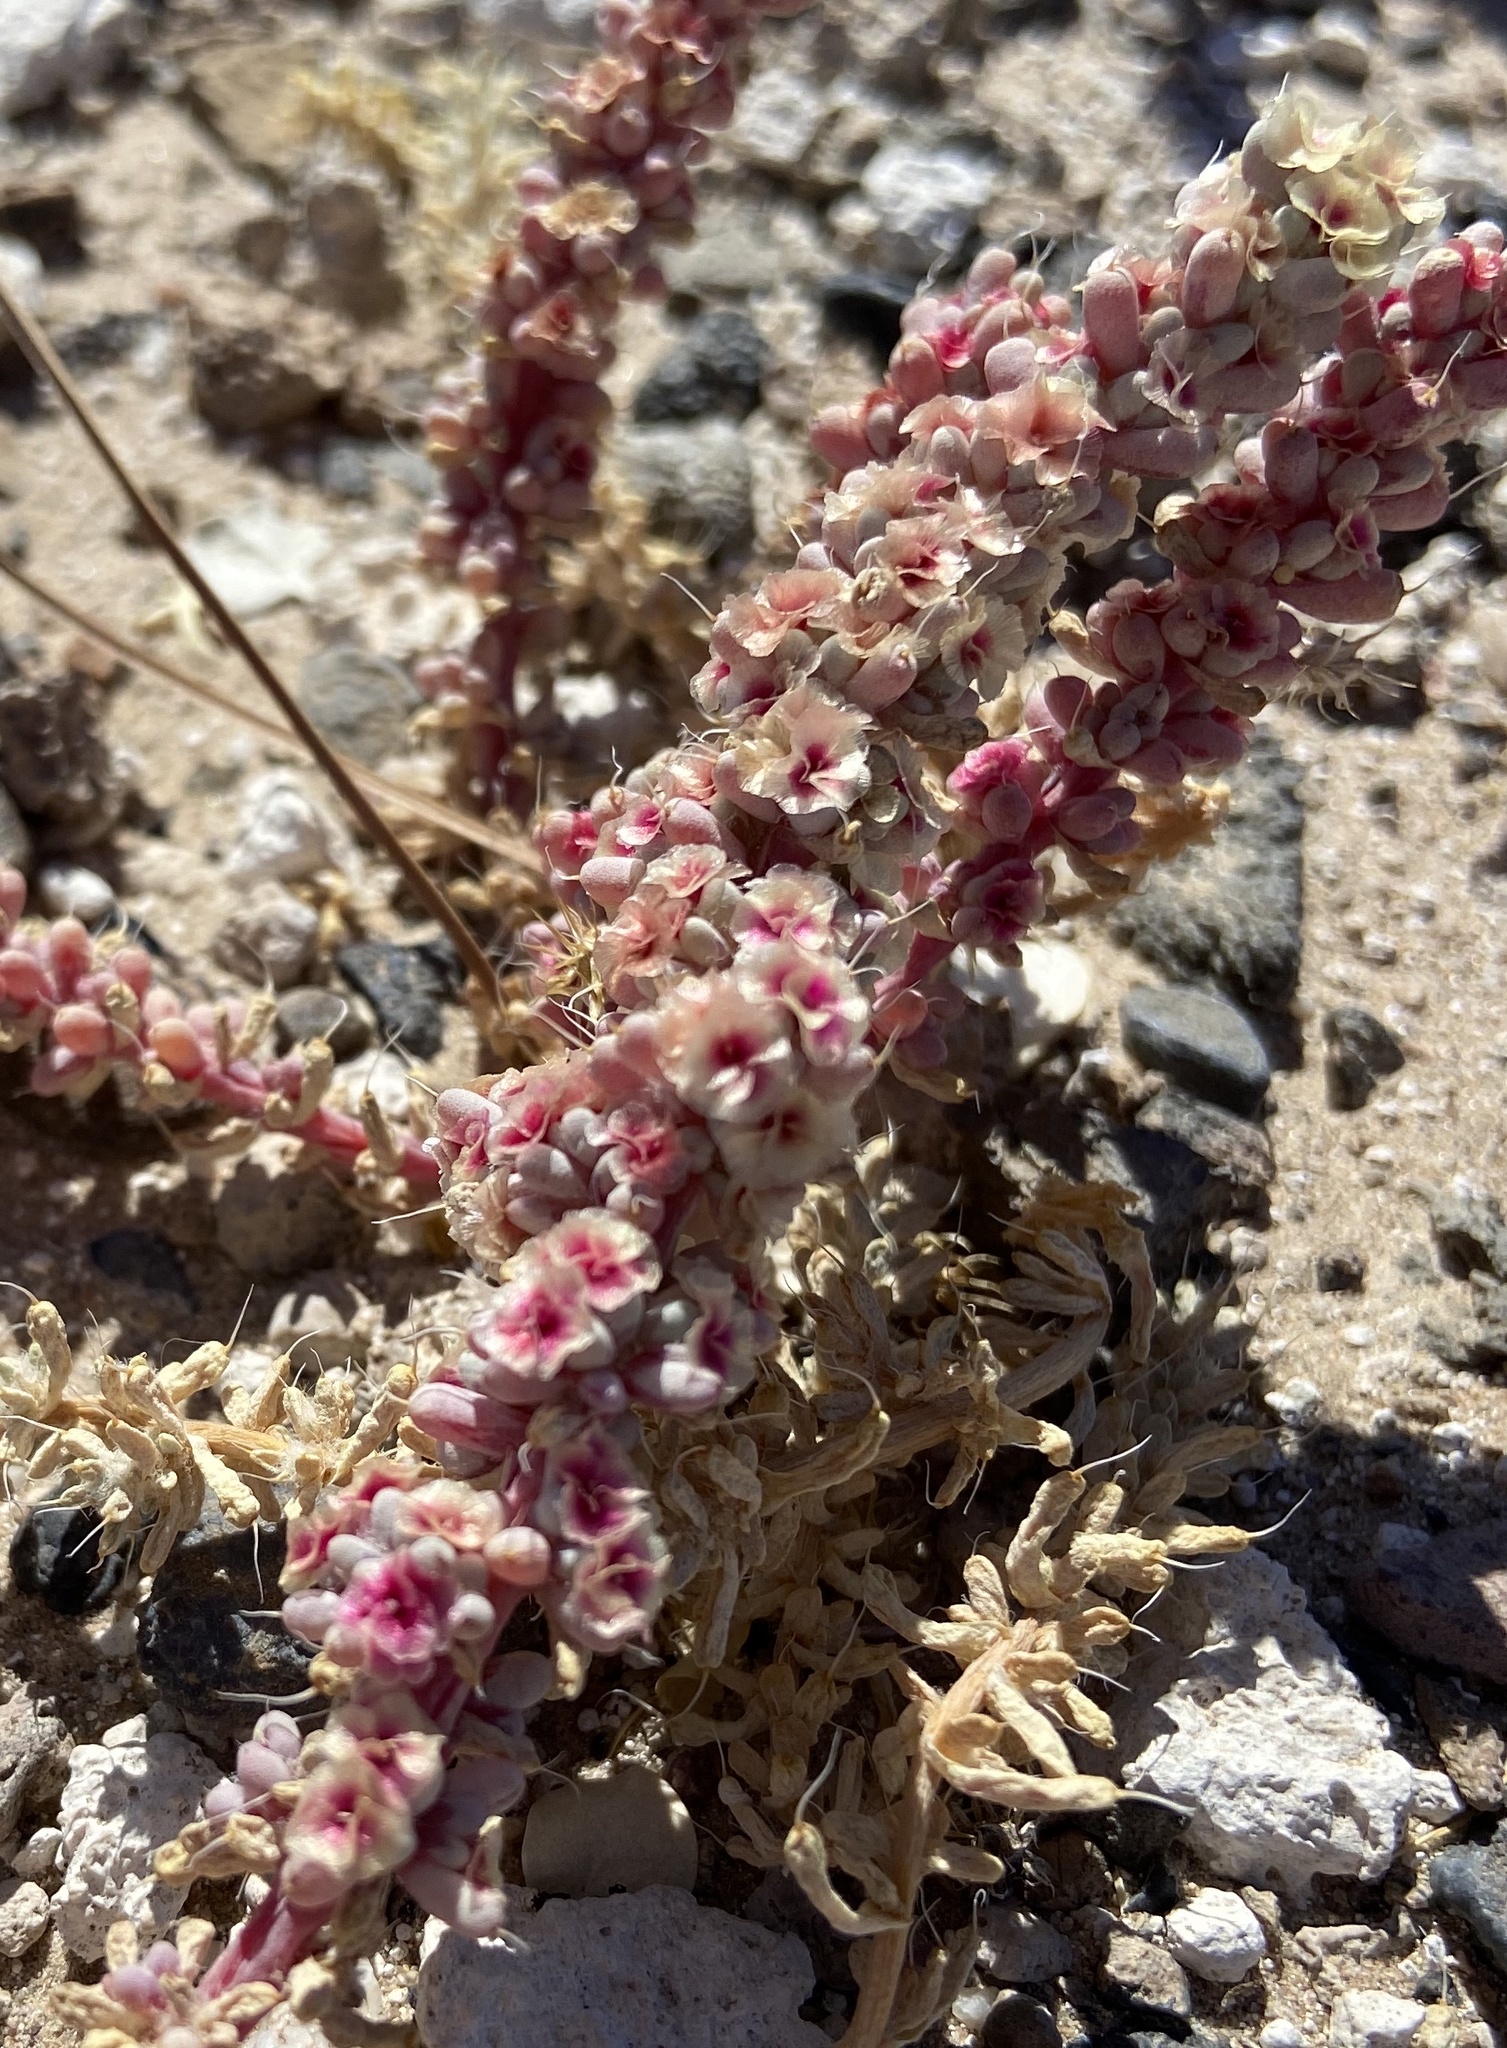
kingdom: Plantae
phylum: Tracheophyta
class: Magnoliopsida
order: Caryophyllales
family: Amaranthaceae
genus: Halogeton
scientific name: Halogeton glomeratus
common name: Saltlover
